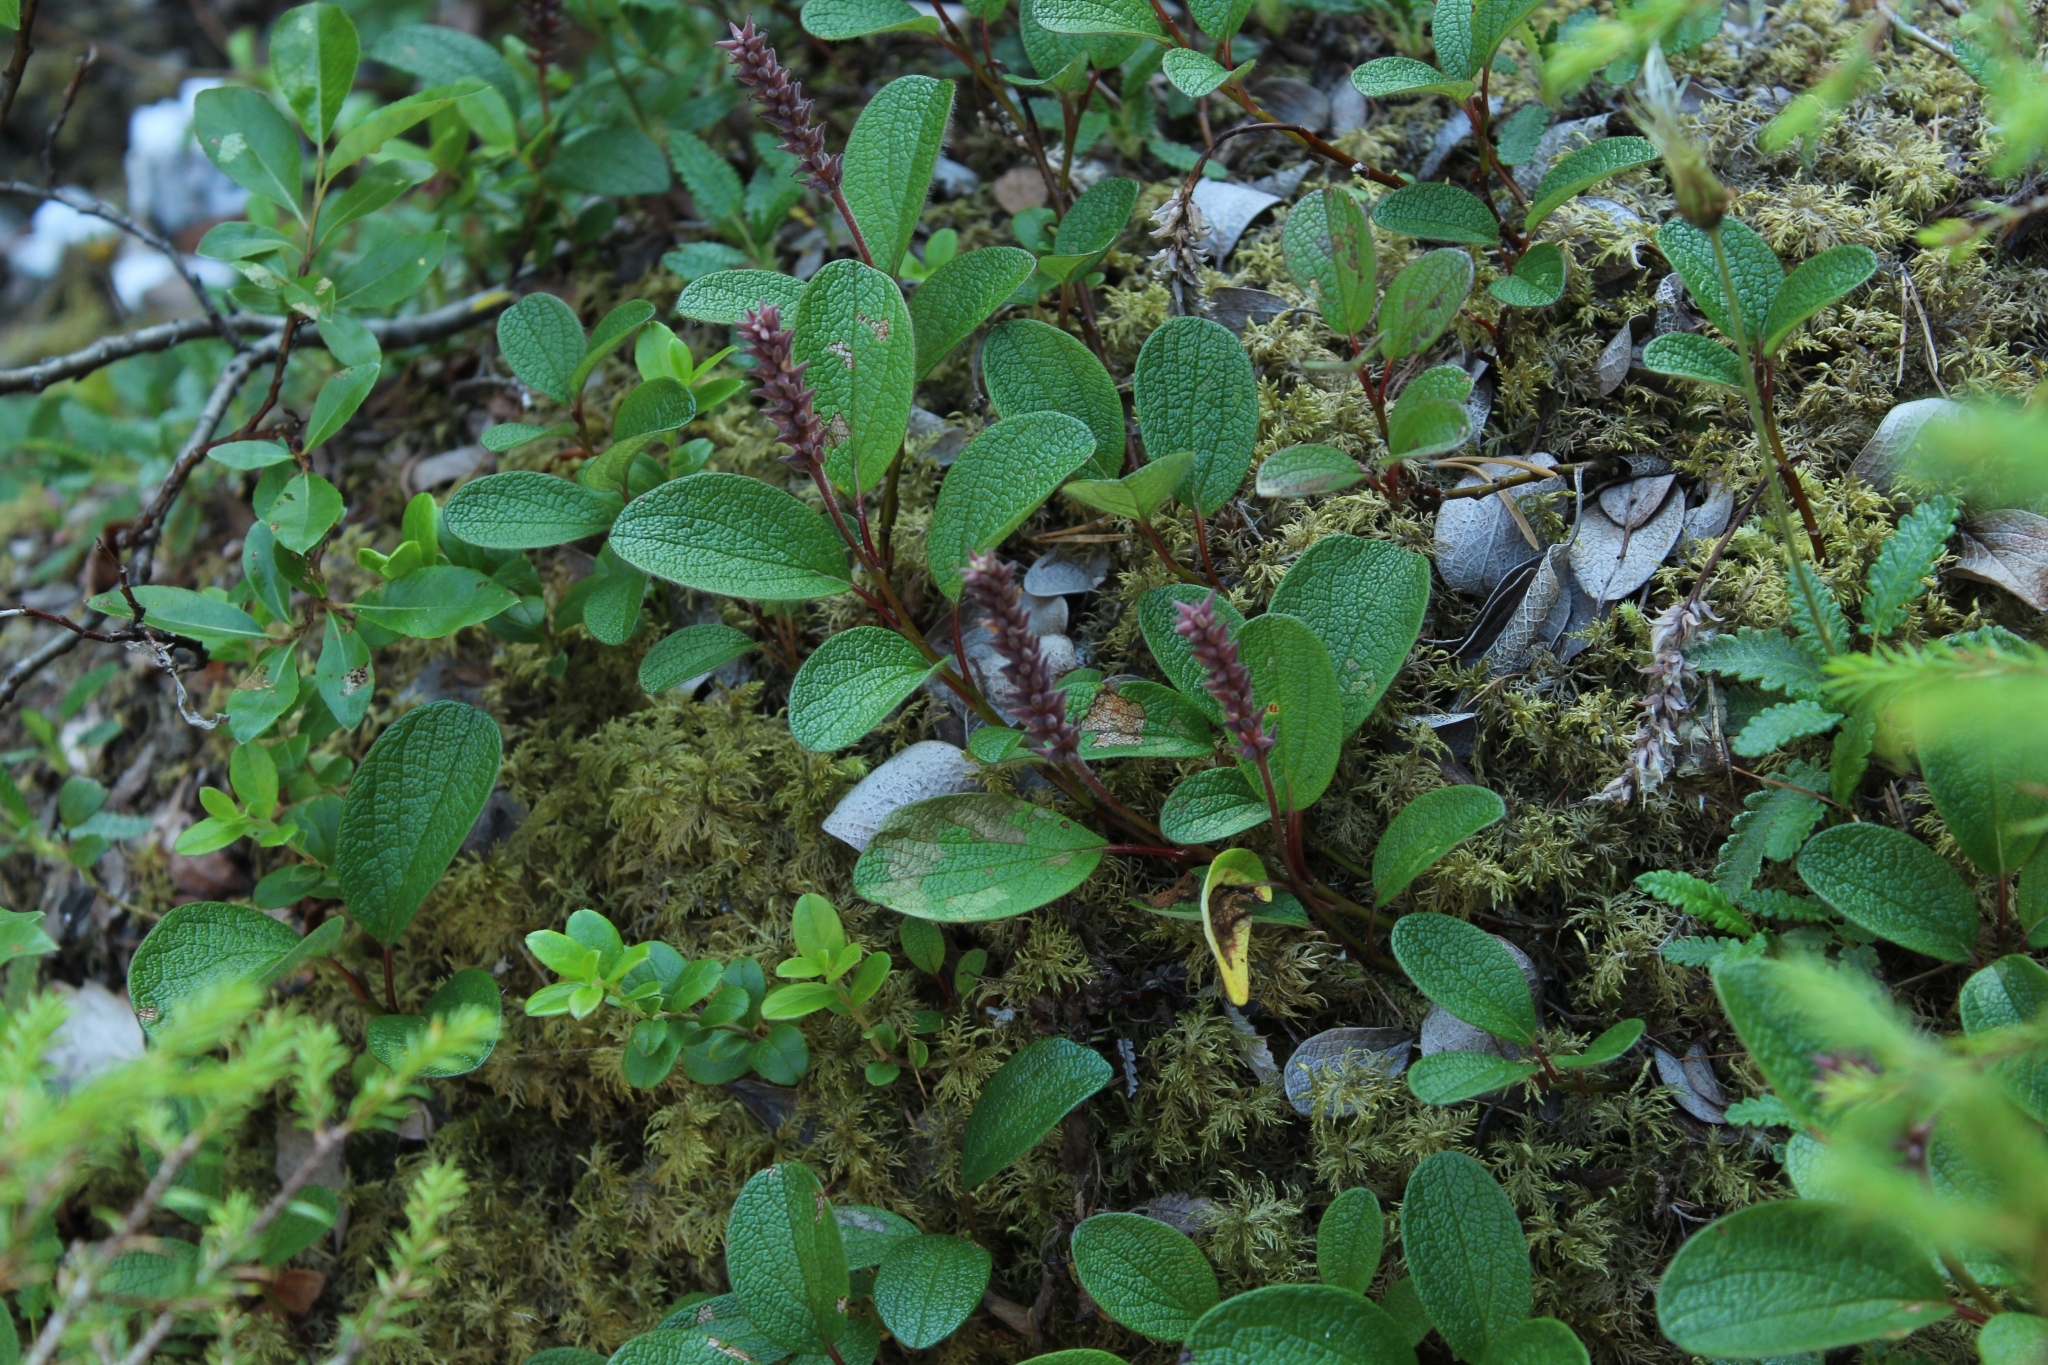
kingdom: Plantae
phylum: Tracheophyta
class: Magnoliopsida
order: Malpighiales
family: Salicaceae
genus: Salix
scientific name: Salix reticulata
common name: Net-leaved willow
